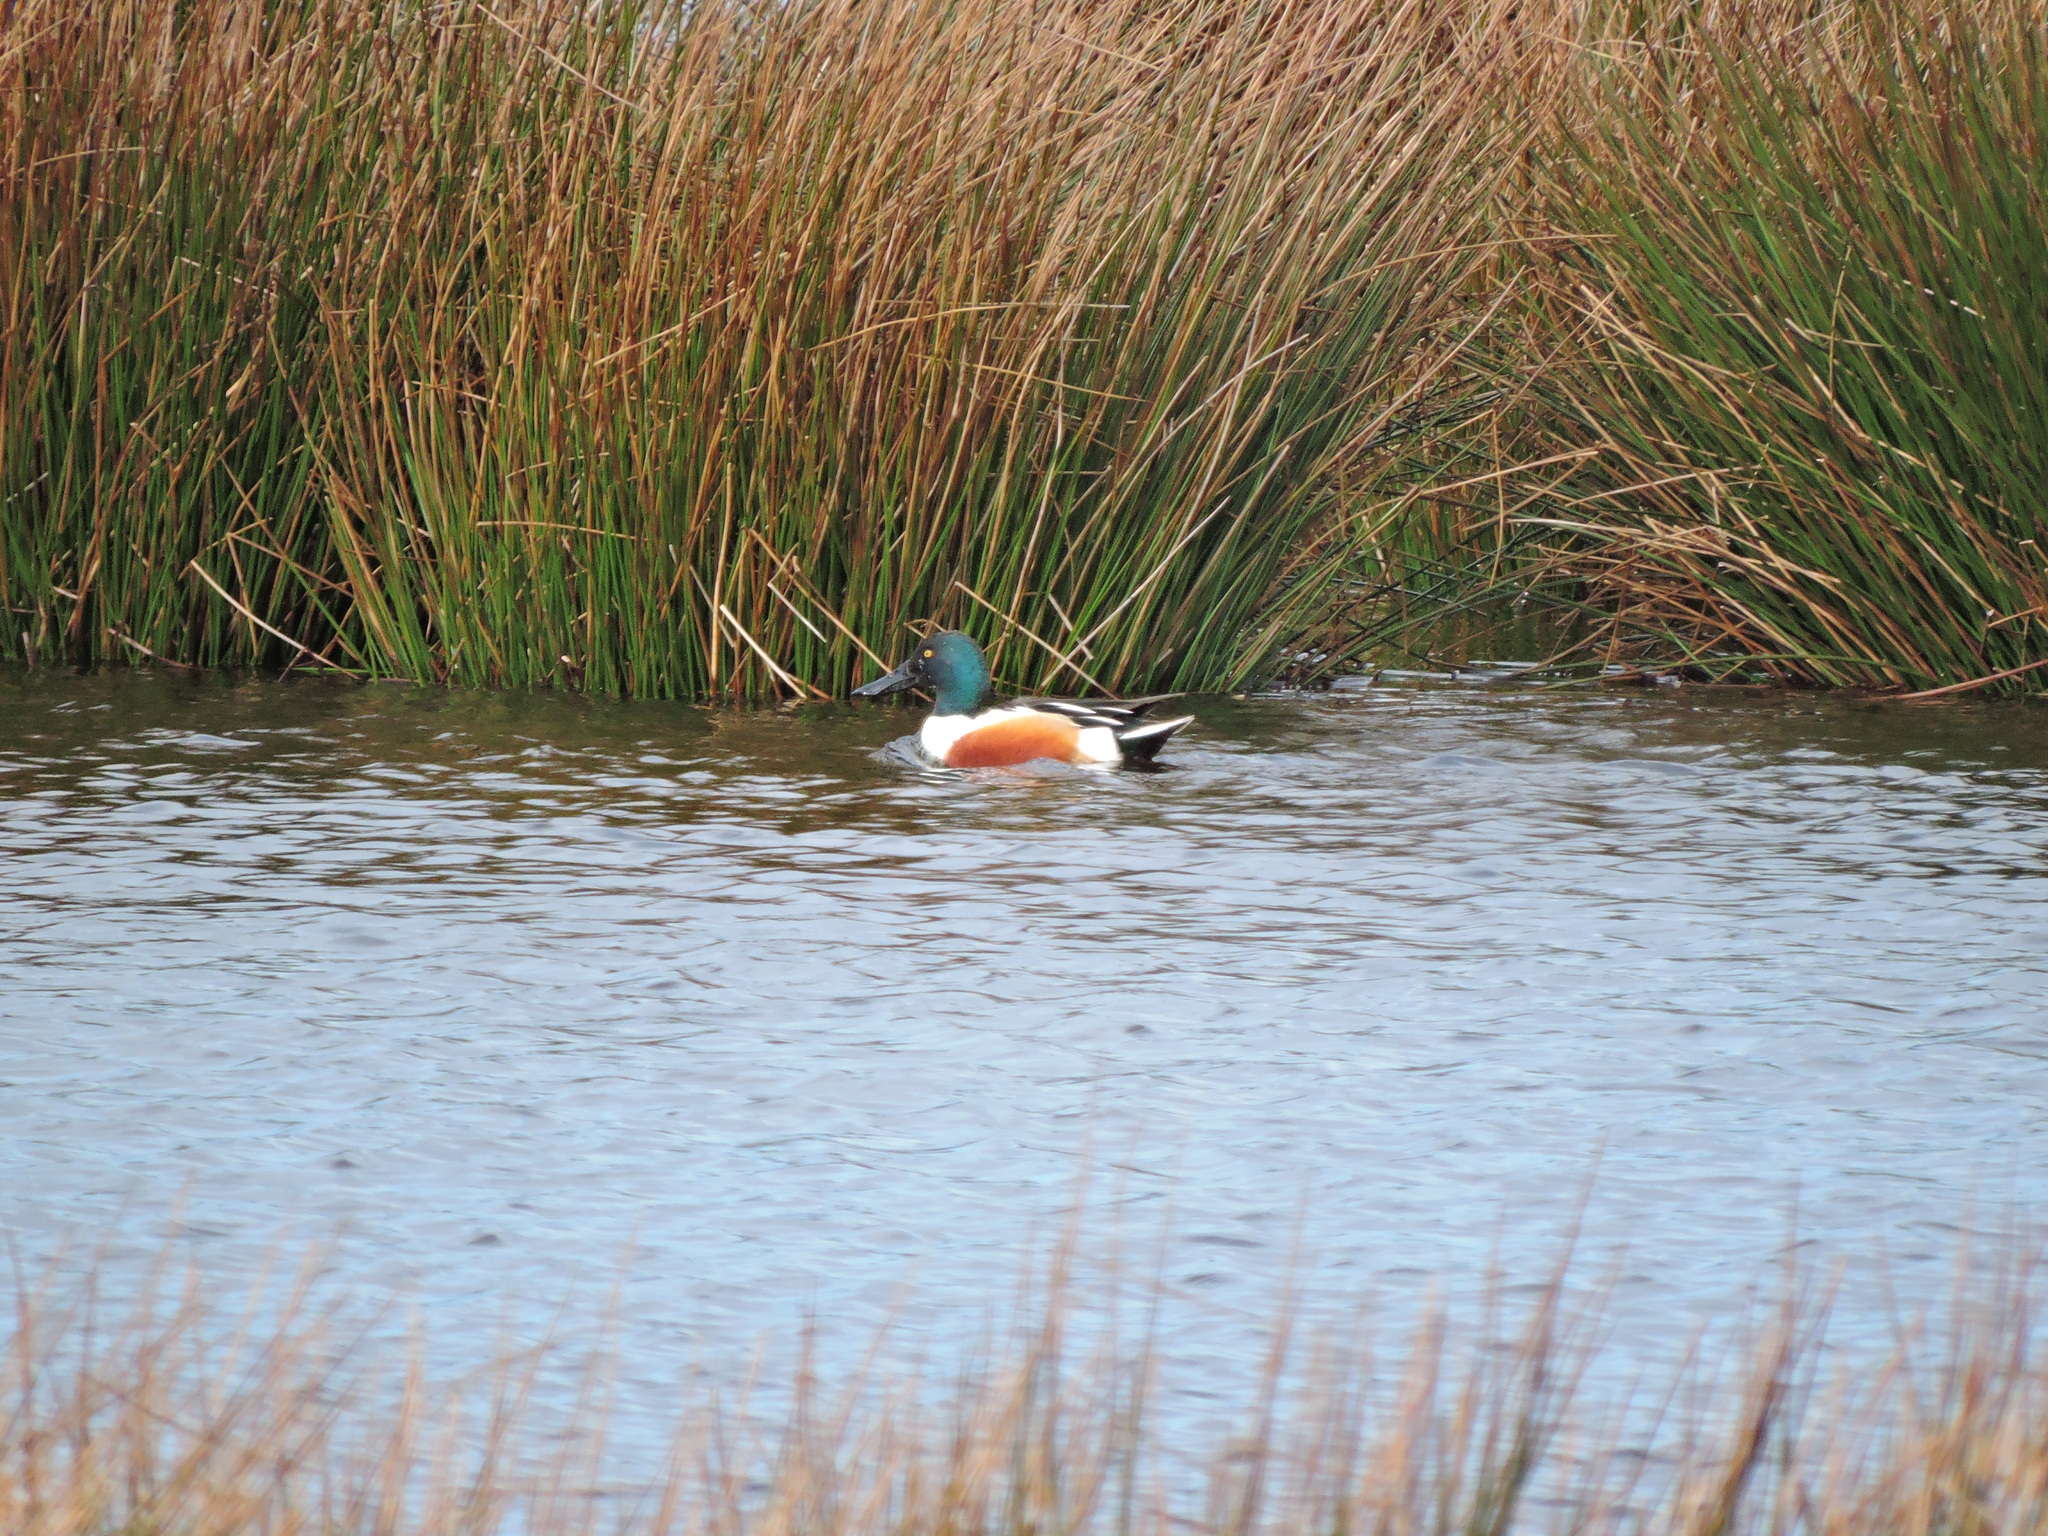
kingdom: Animalia
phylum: Chordata
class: Aves
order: Anseriformes
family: Anatidae
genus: Spatula
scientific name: Spatula clypeata
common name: Northern shoveler
